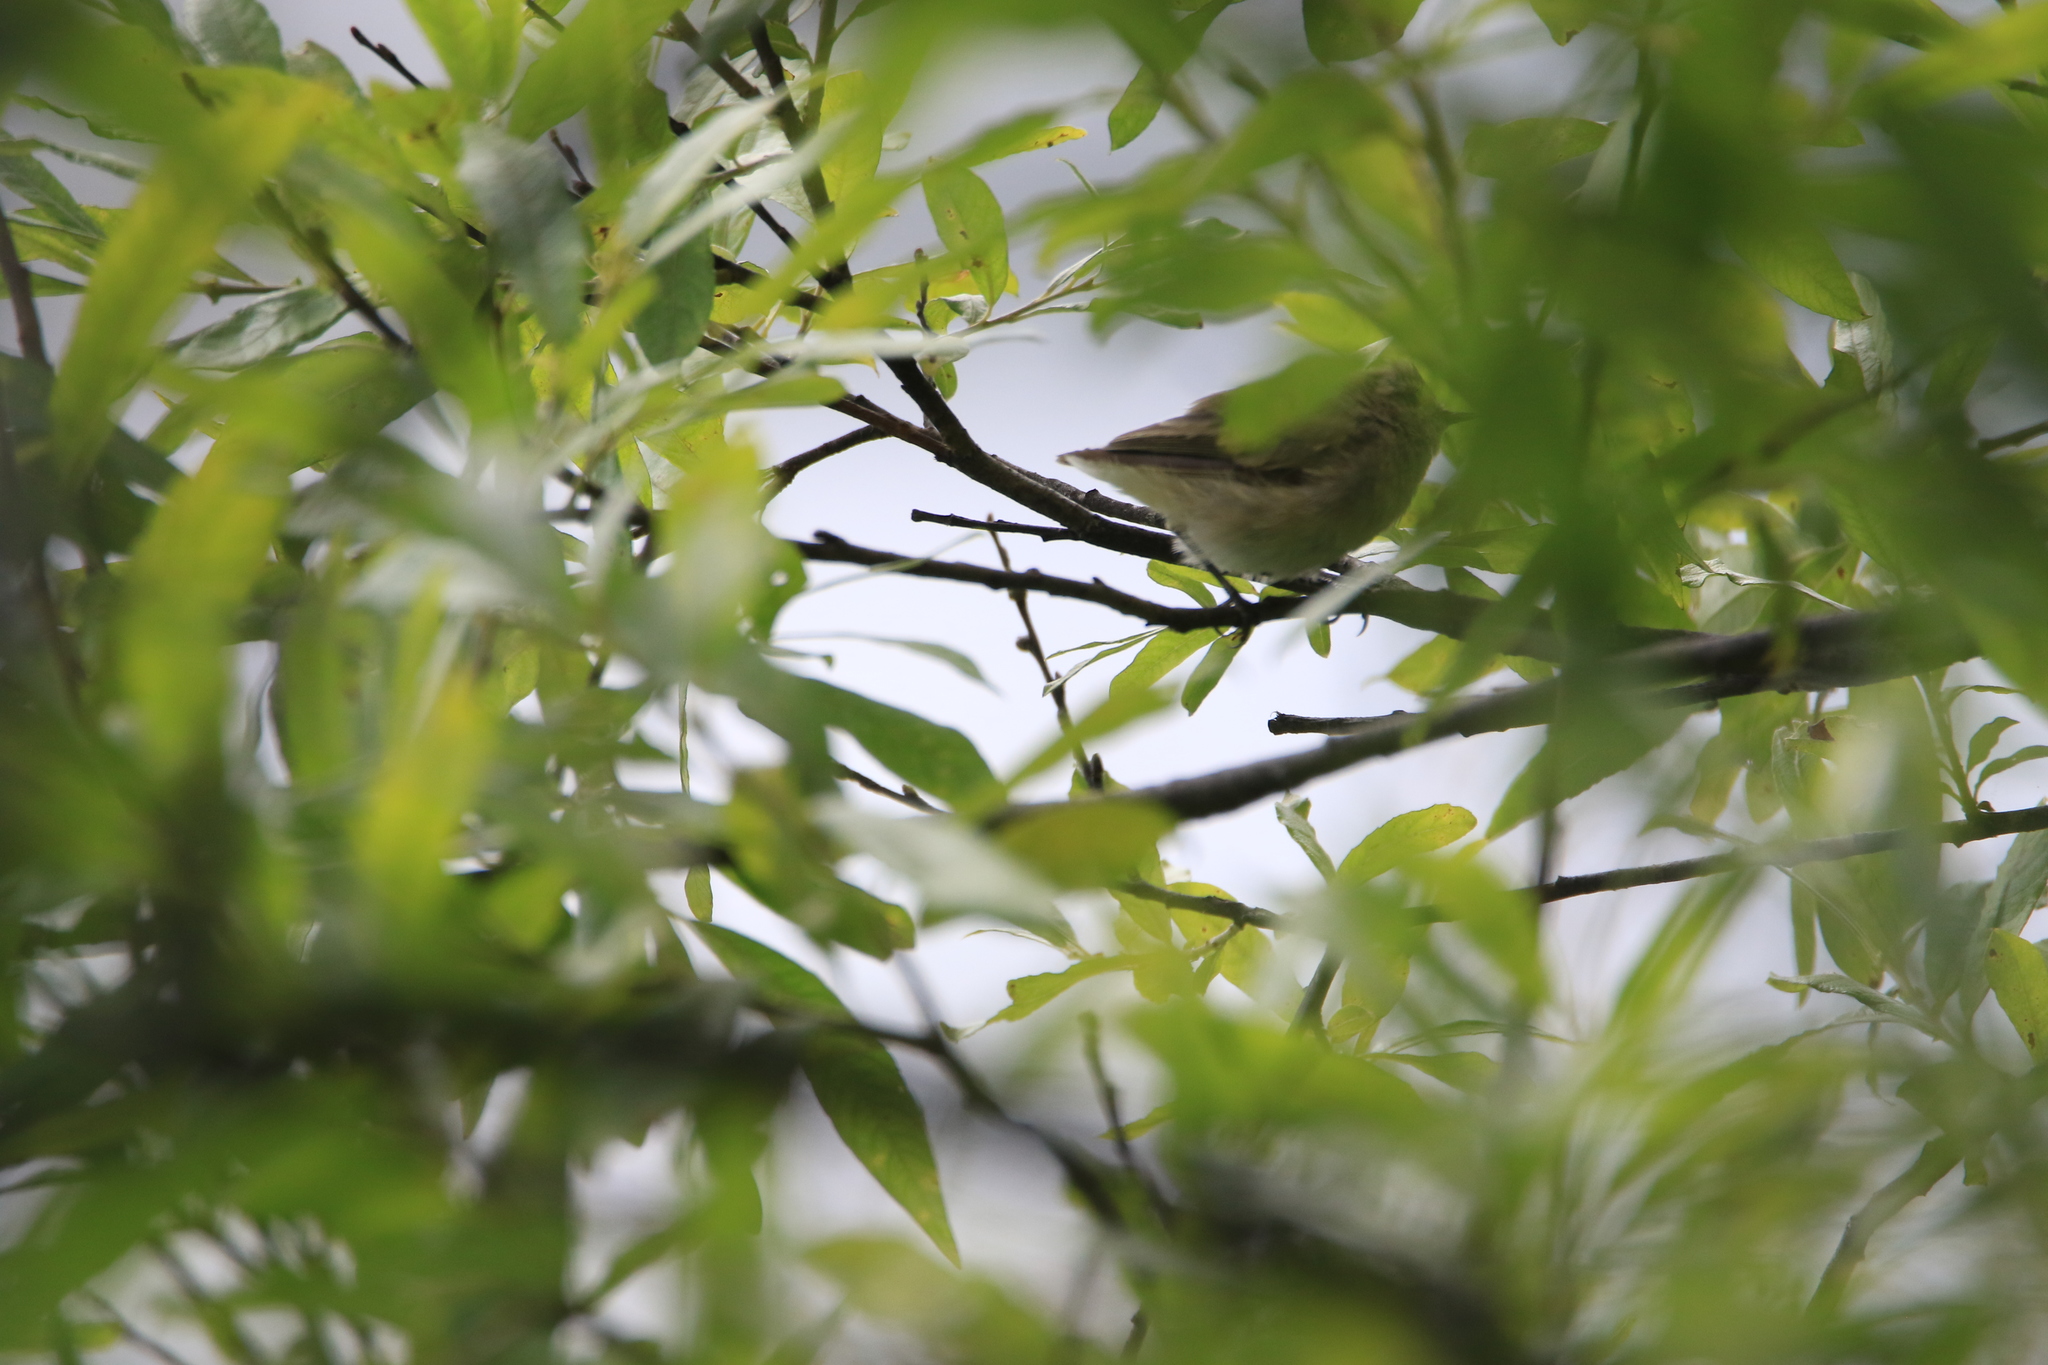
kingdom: Animalia
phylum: Chordata
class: Aves
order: Passeriformes
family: Phylloscopidae
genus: Phylloscopus
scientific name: Phylloscopus collybita
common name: Common chiffchaff
